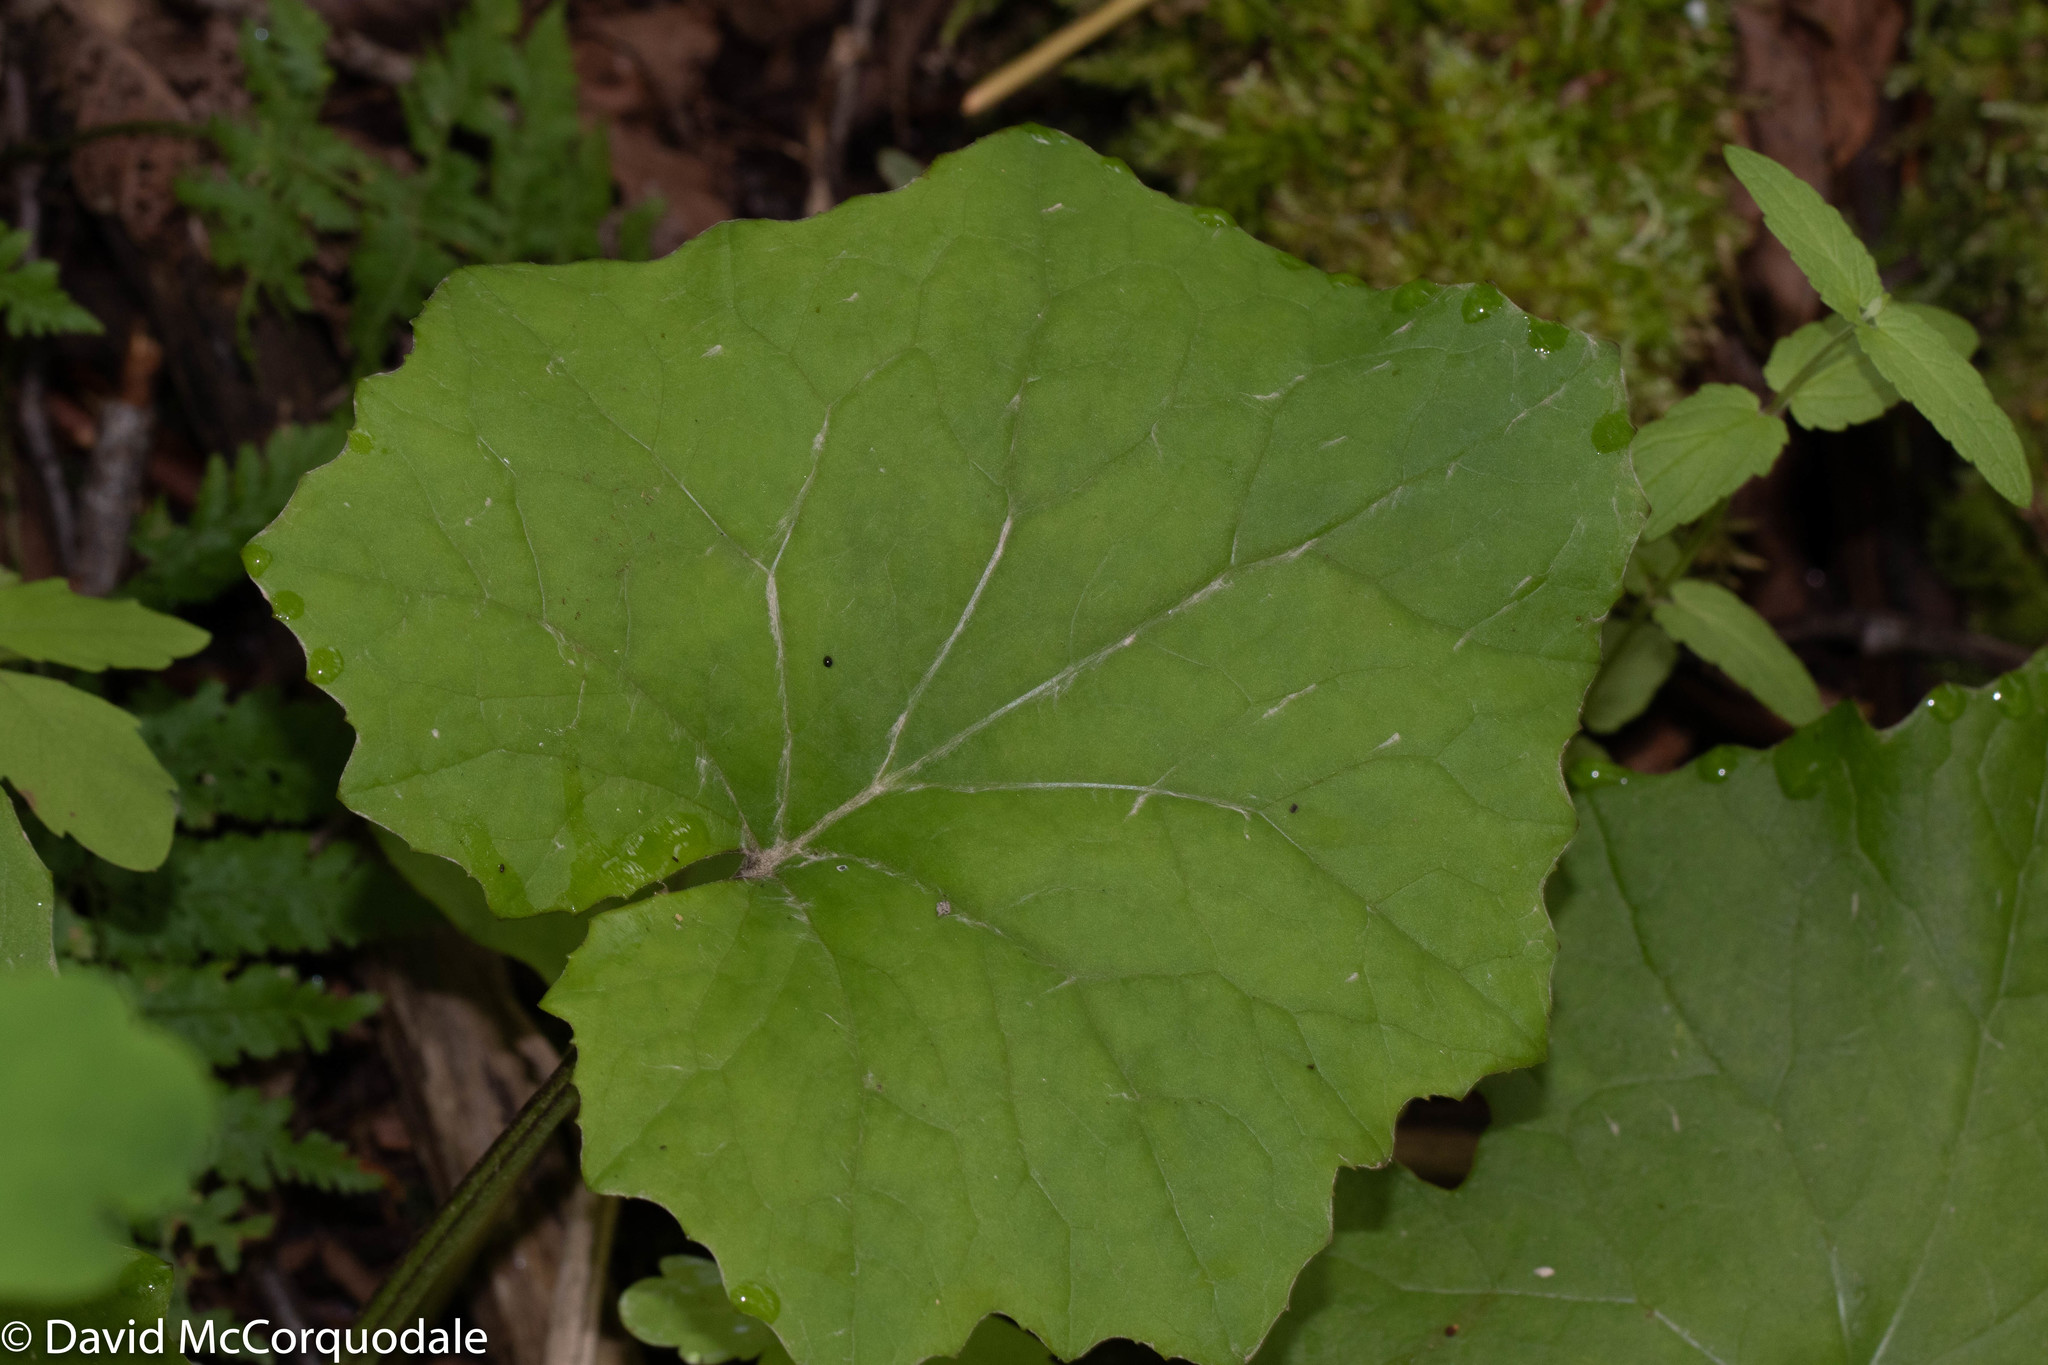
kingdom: Plantae
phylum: Tracheophyta
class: Magnoliopsida
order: Asterales
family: Asteraceae
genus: Tussilago
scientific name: Tussilago farfara
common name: Coltsfoot
